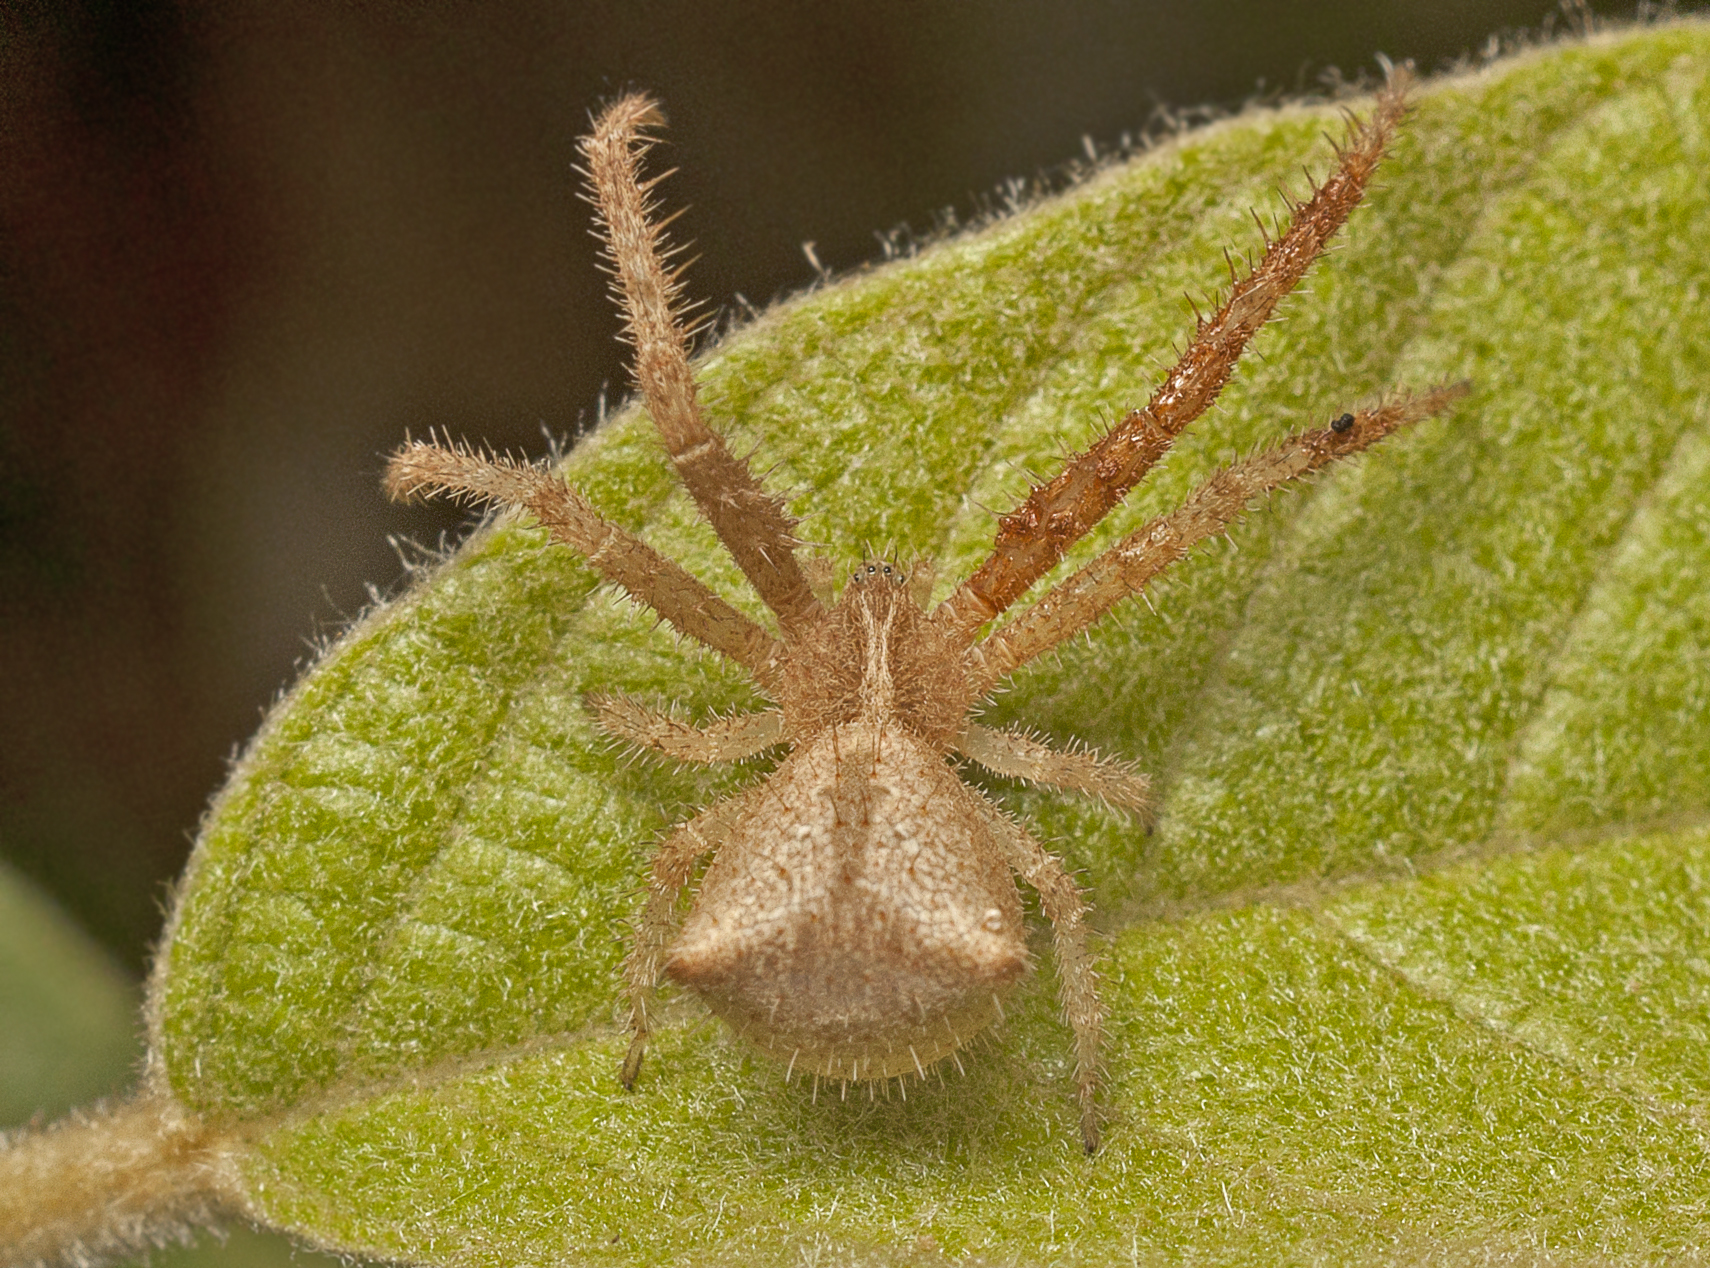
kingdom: Animalia
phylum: Arthropoda
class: Arachnida
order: Araneae
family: Thomisidae
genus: Sidymella
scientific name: Sidymella hirsuta
